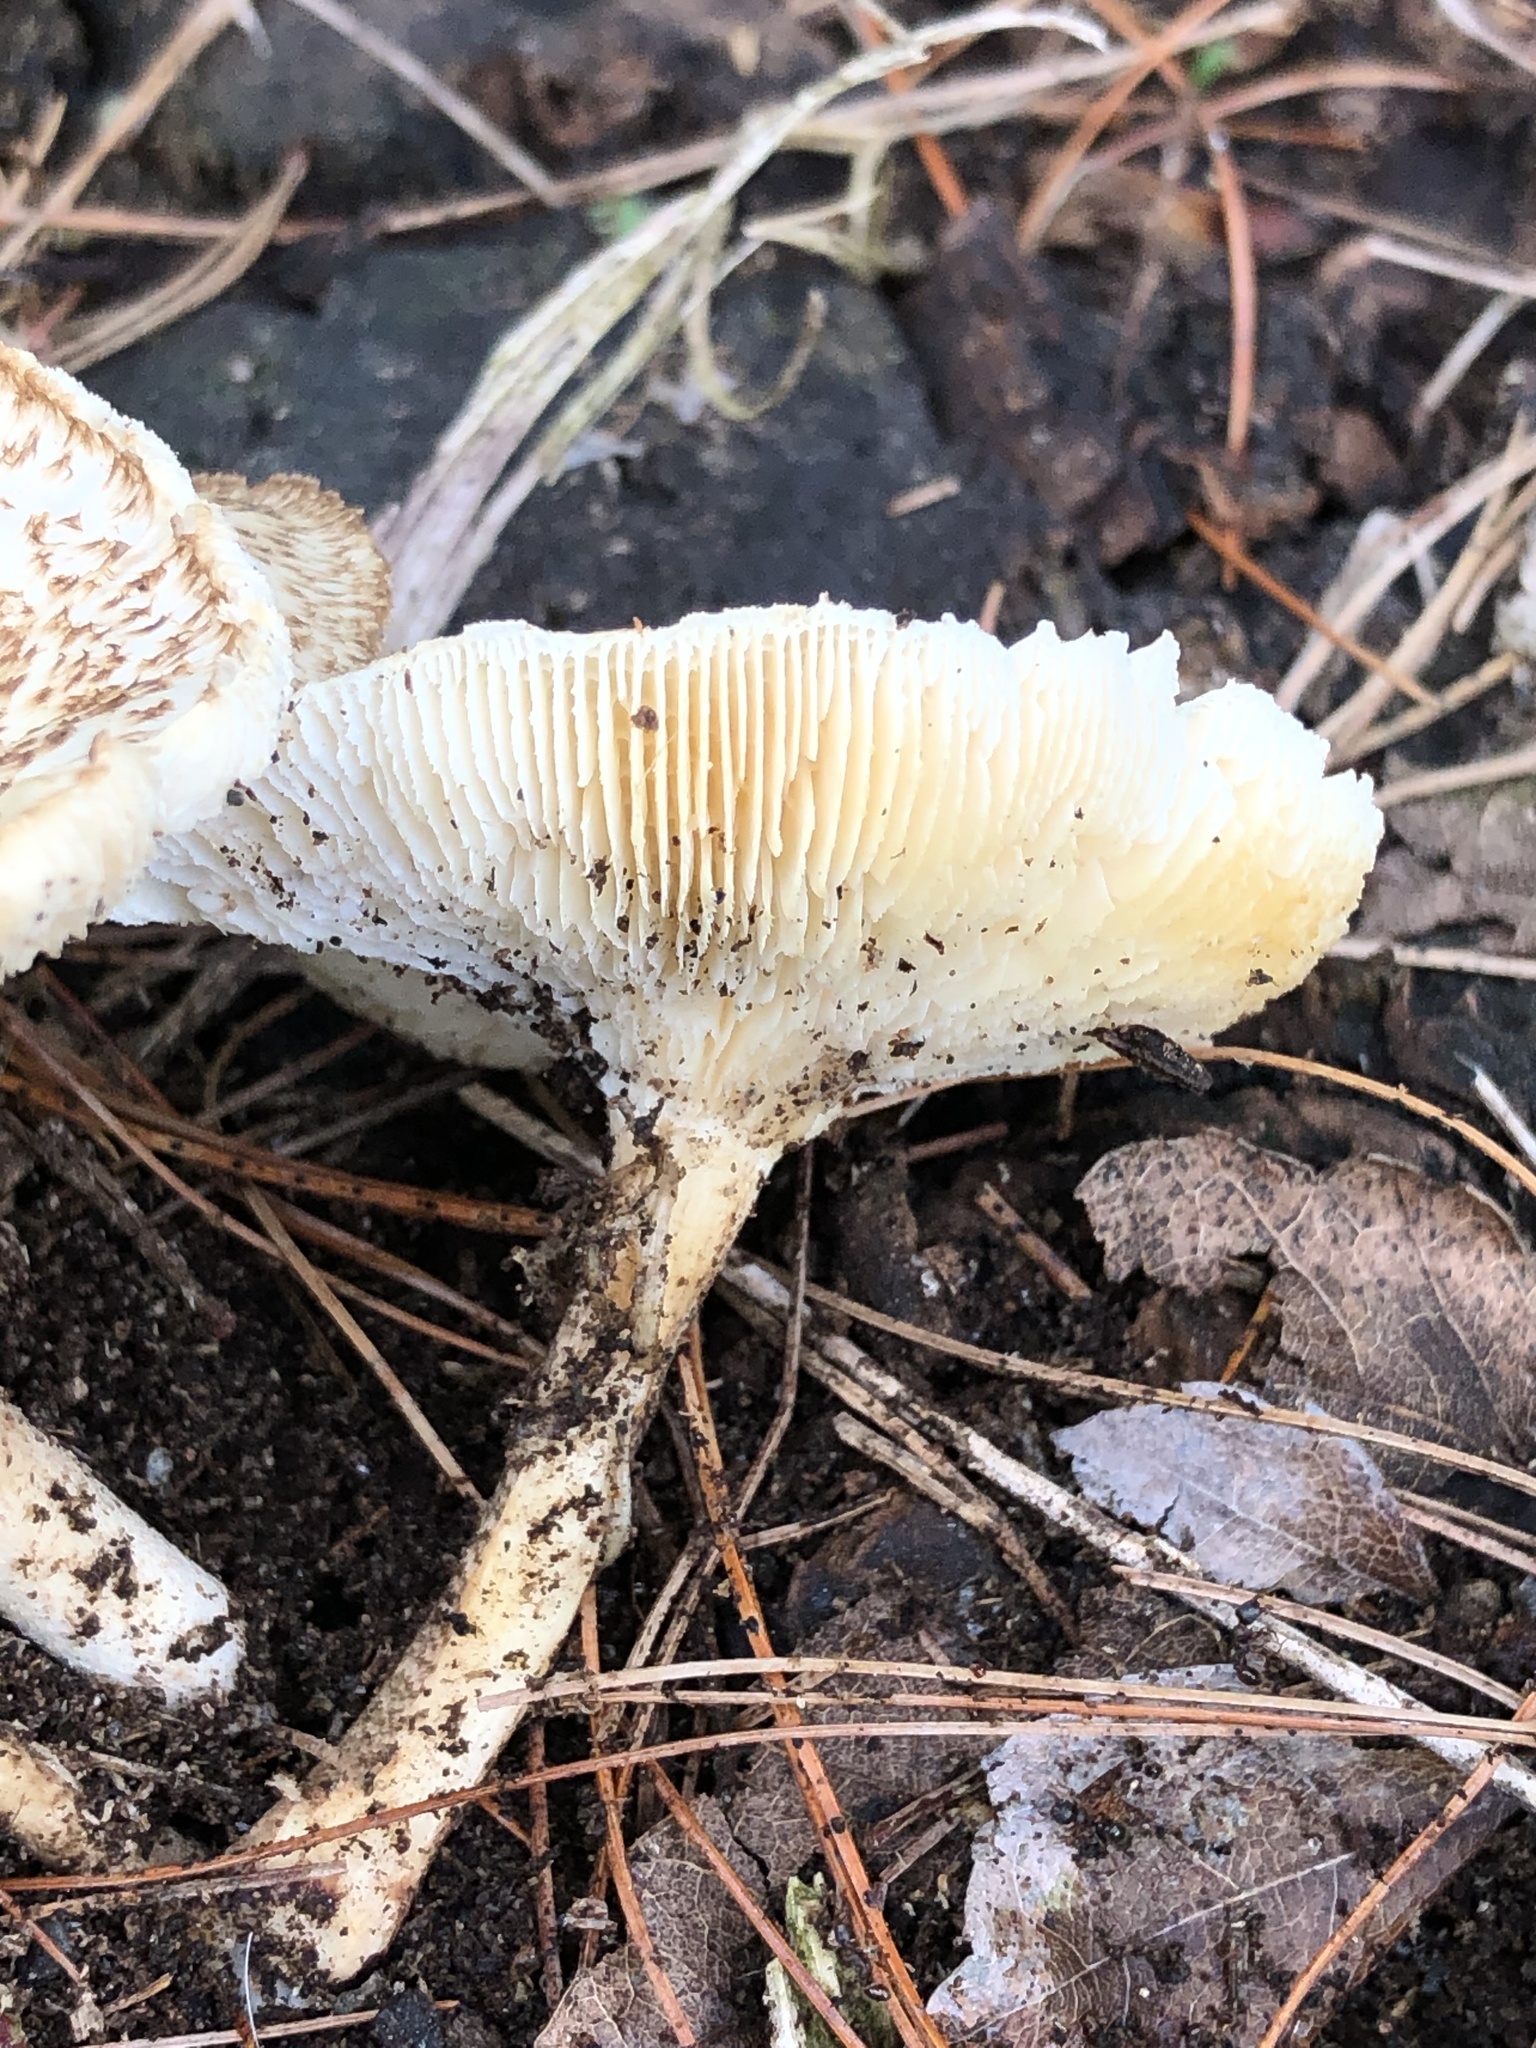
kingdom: Fungi
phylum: Basidiomycota
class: Agaricomycetes
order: Polyporales
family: Polyporaceae
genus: Lentinus
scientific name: Lentinus tigrinus
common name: Tiger sawgill
